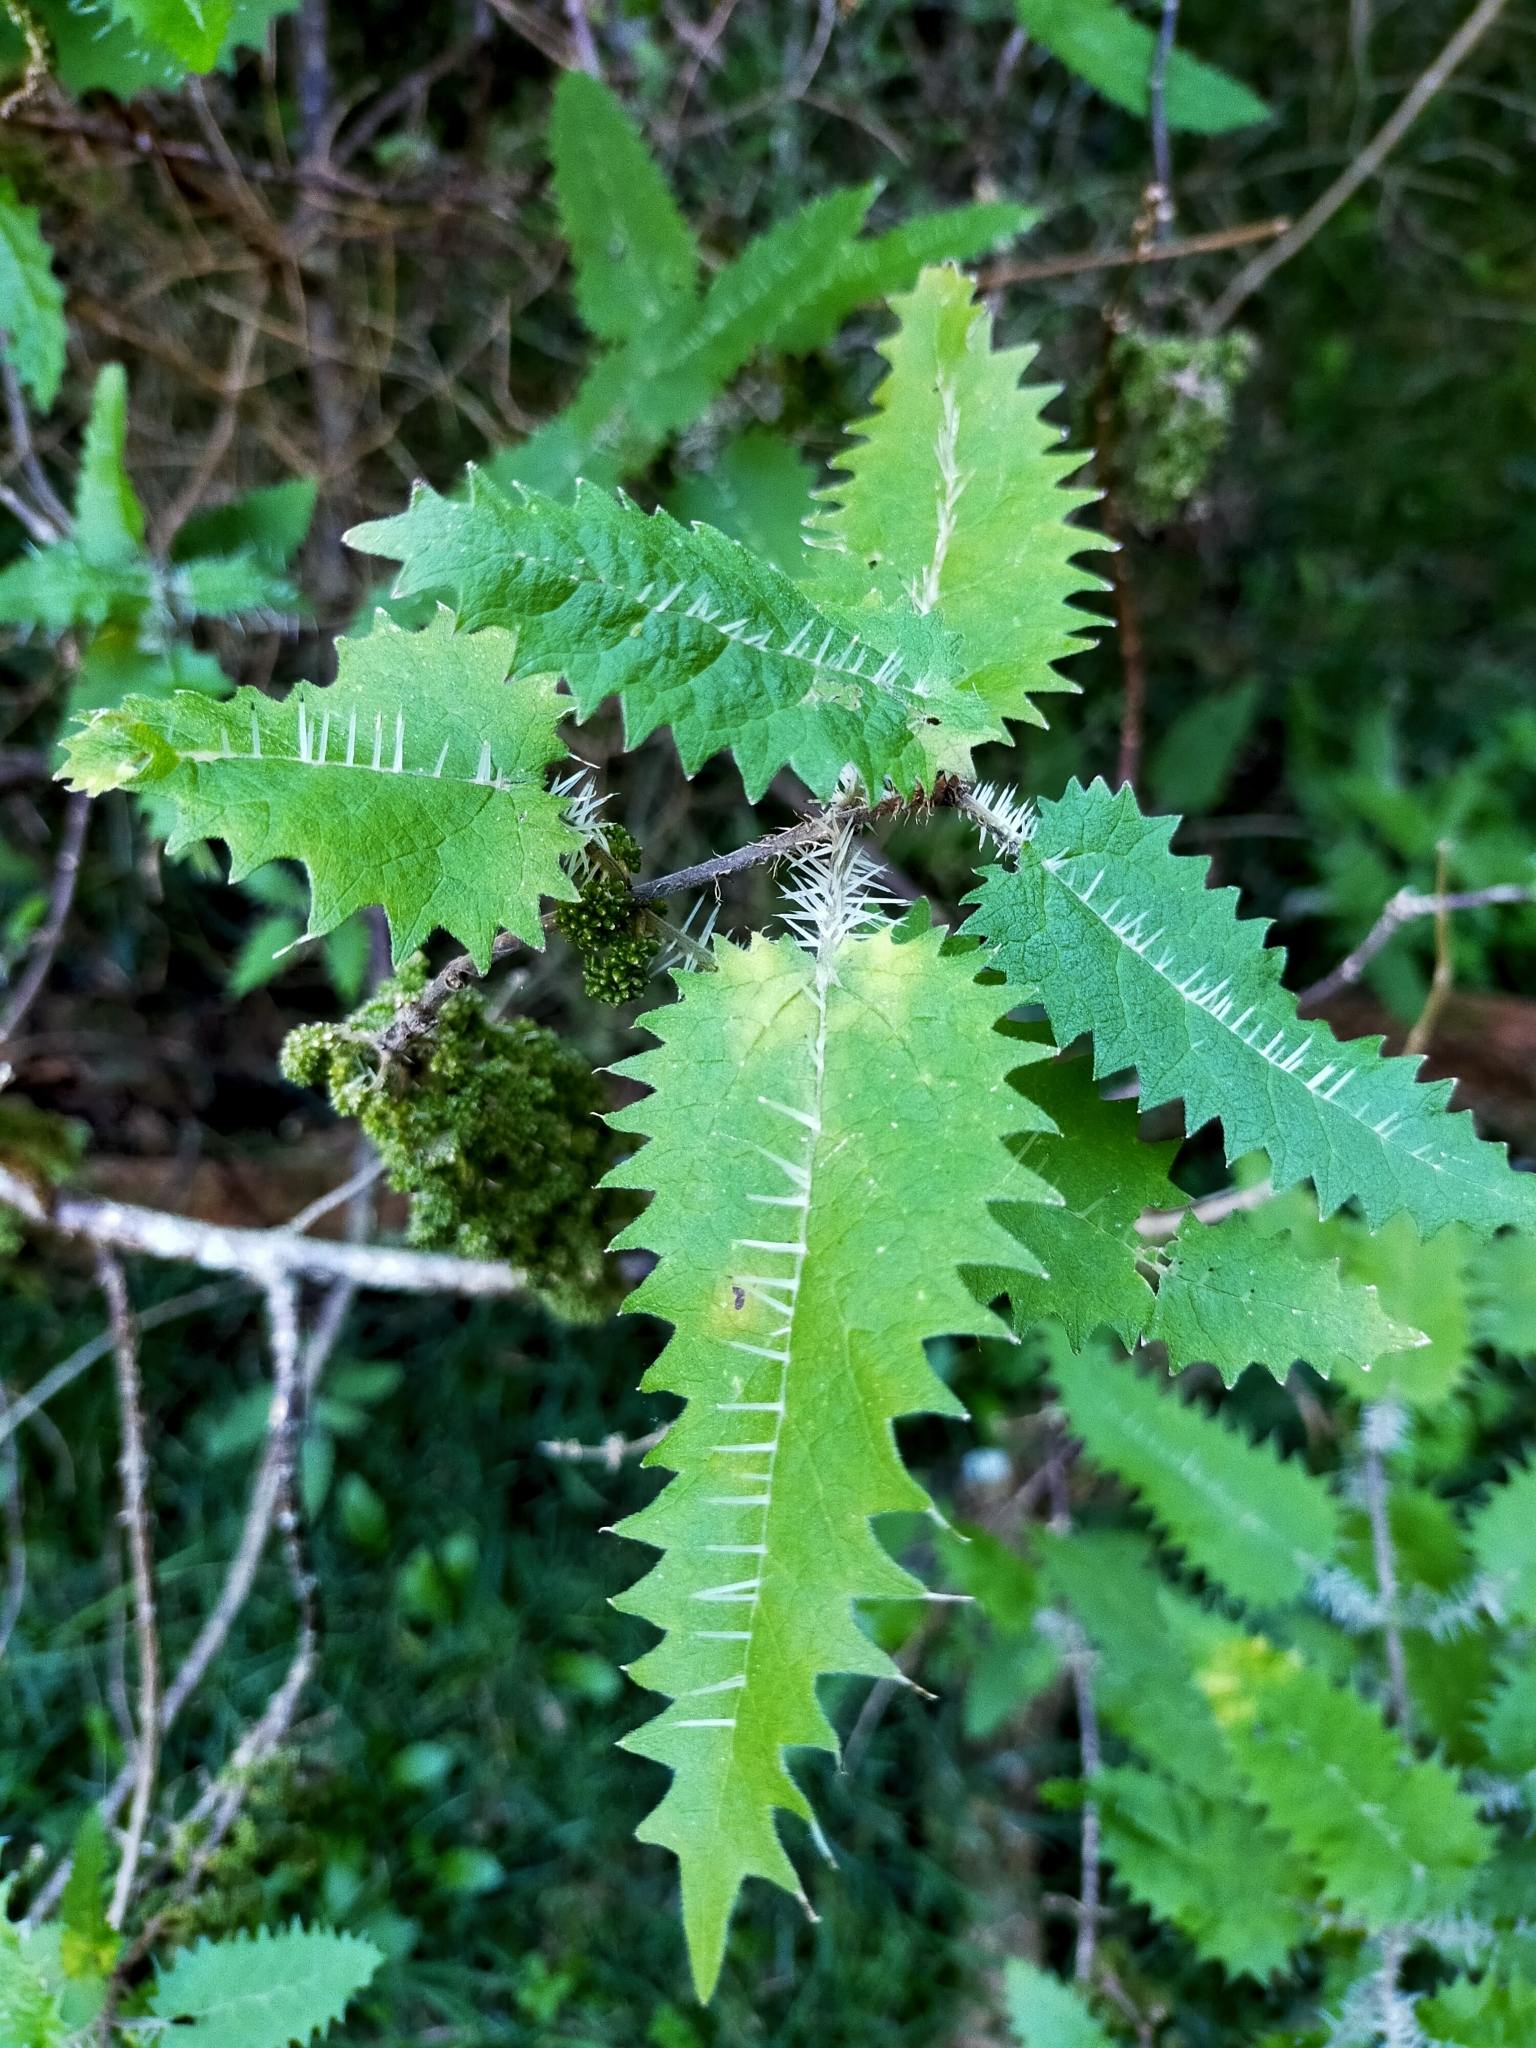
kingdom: Plantae
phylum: Tracheophyta
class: Magnoliopsida
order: Rosales
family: Urticaceae
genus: Urtica
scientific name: Urtica ferox
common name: Tree nettle
